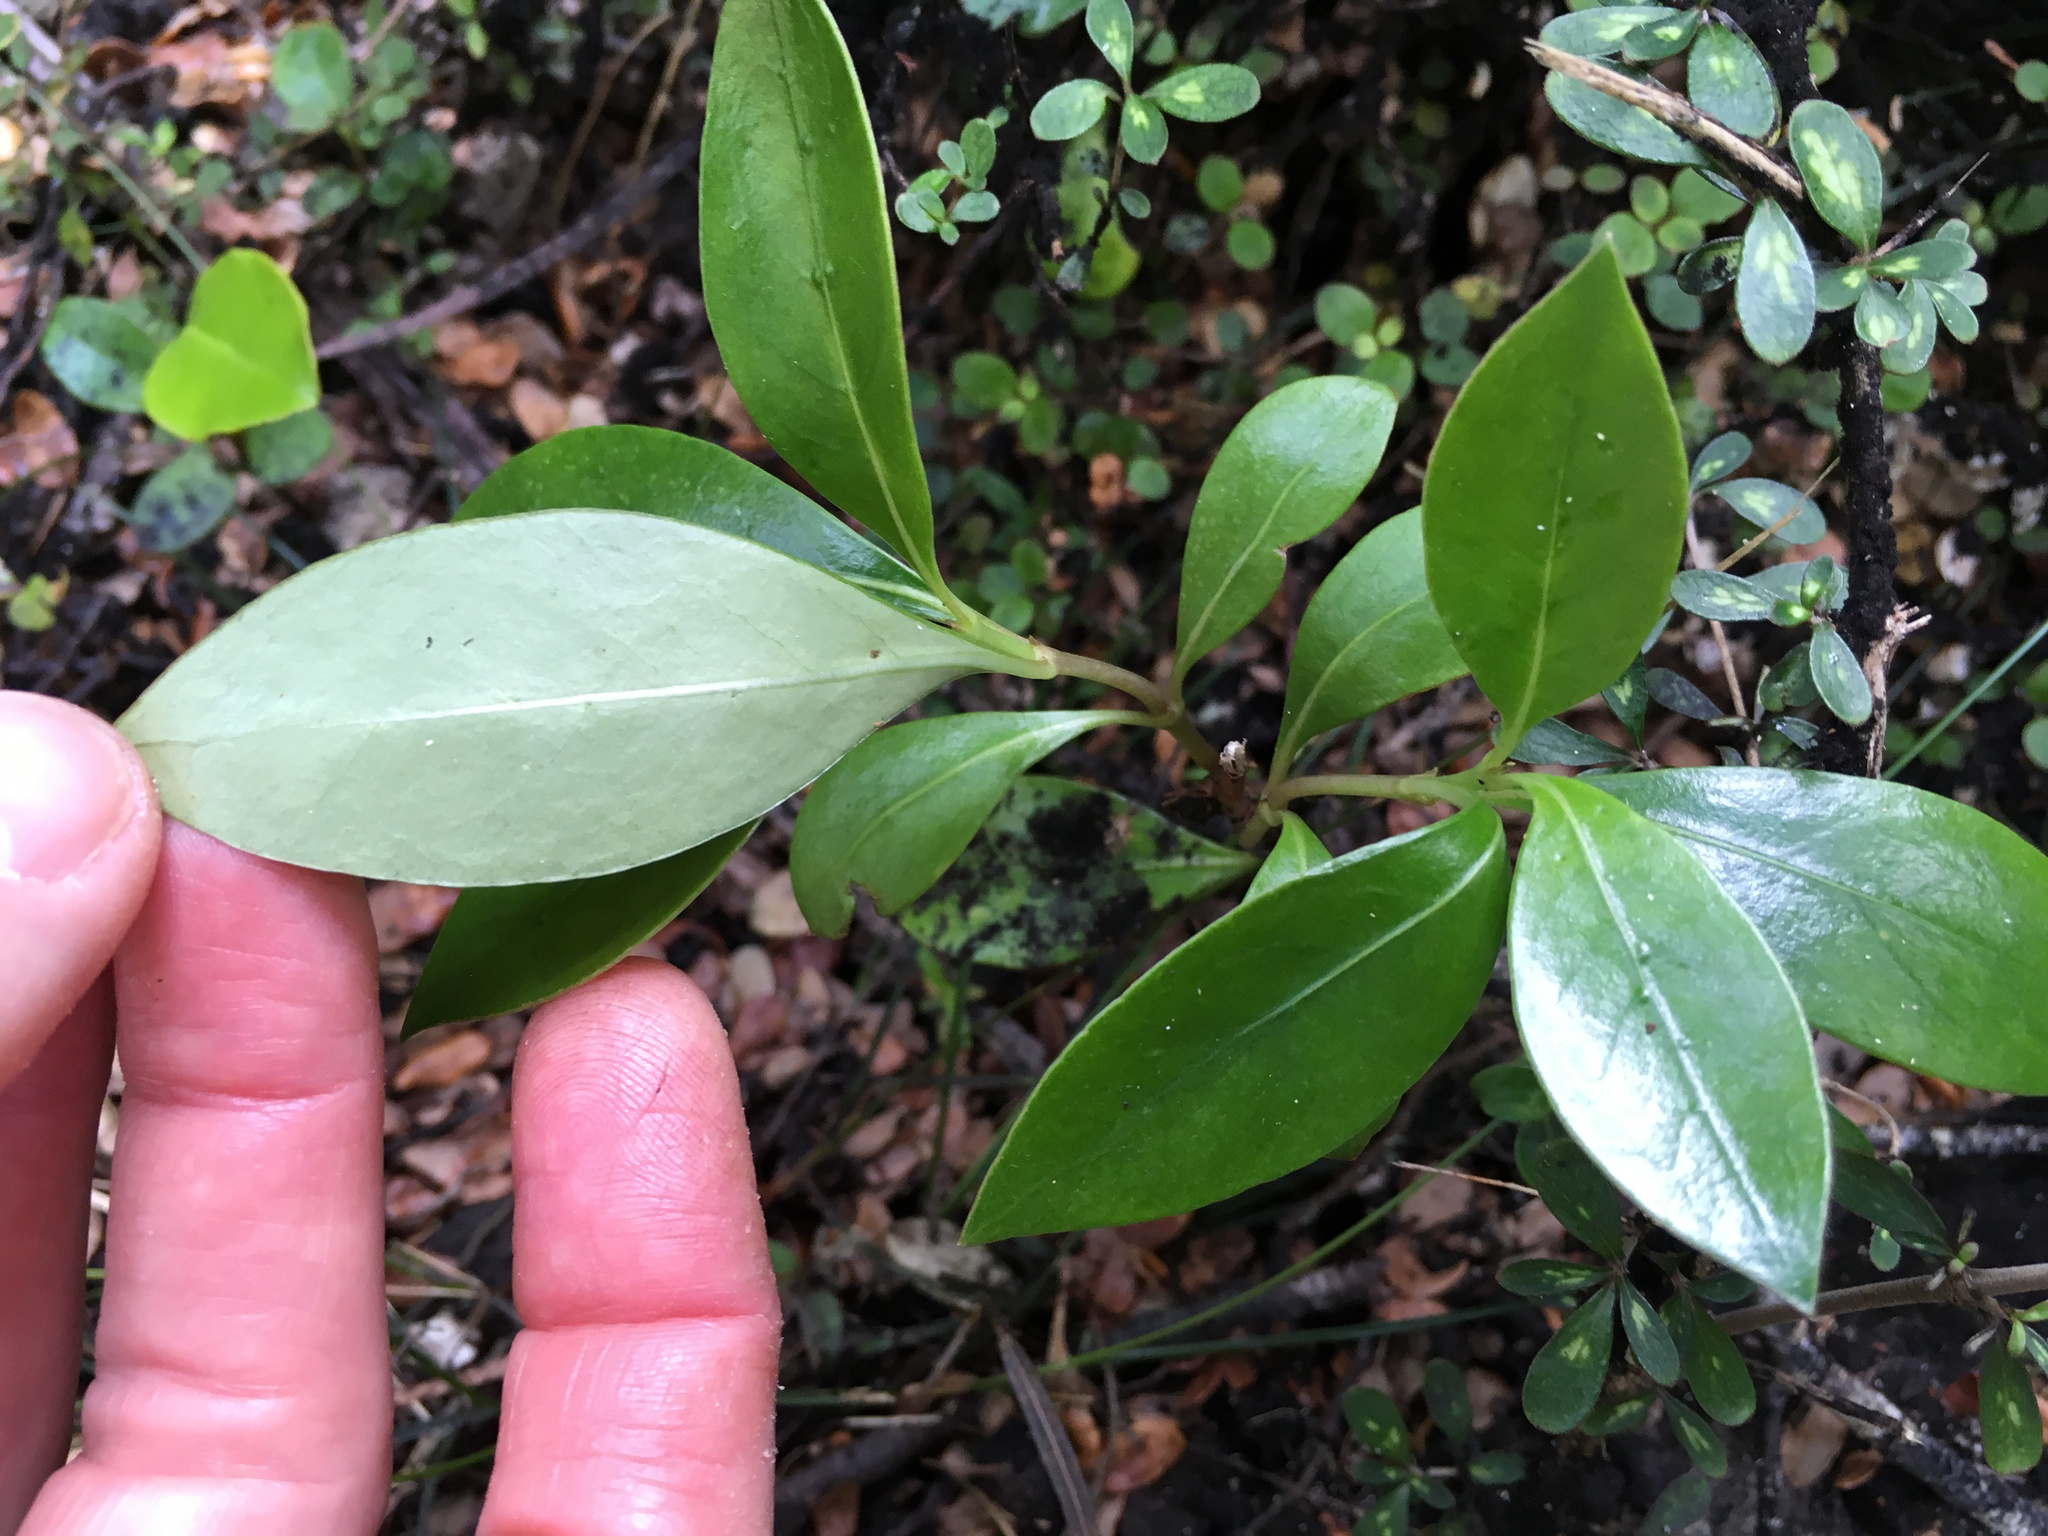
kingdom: Plantae
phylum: Tracheophyta
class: Magnoliopsida
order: Gentianales
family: Rubiaceae
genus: Coprosma
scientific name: Coprosma lucida
